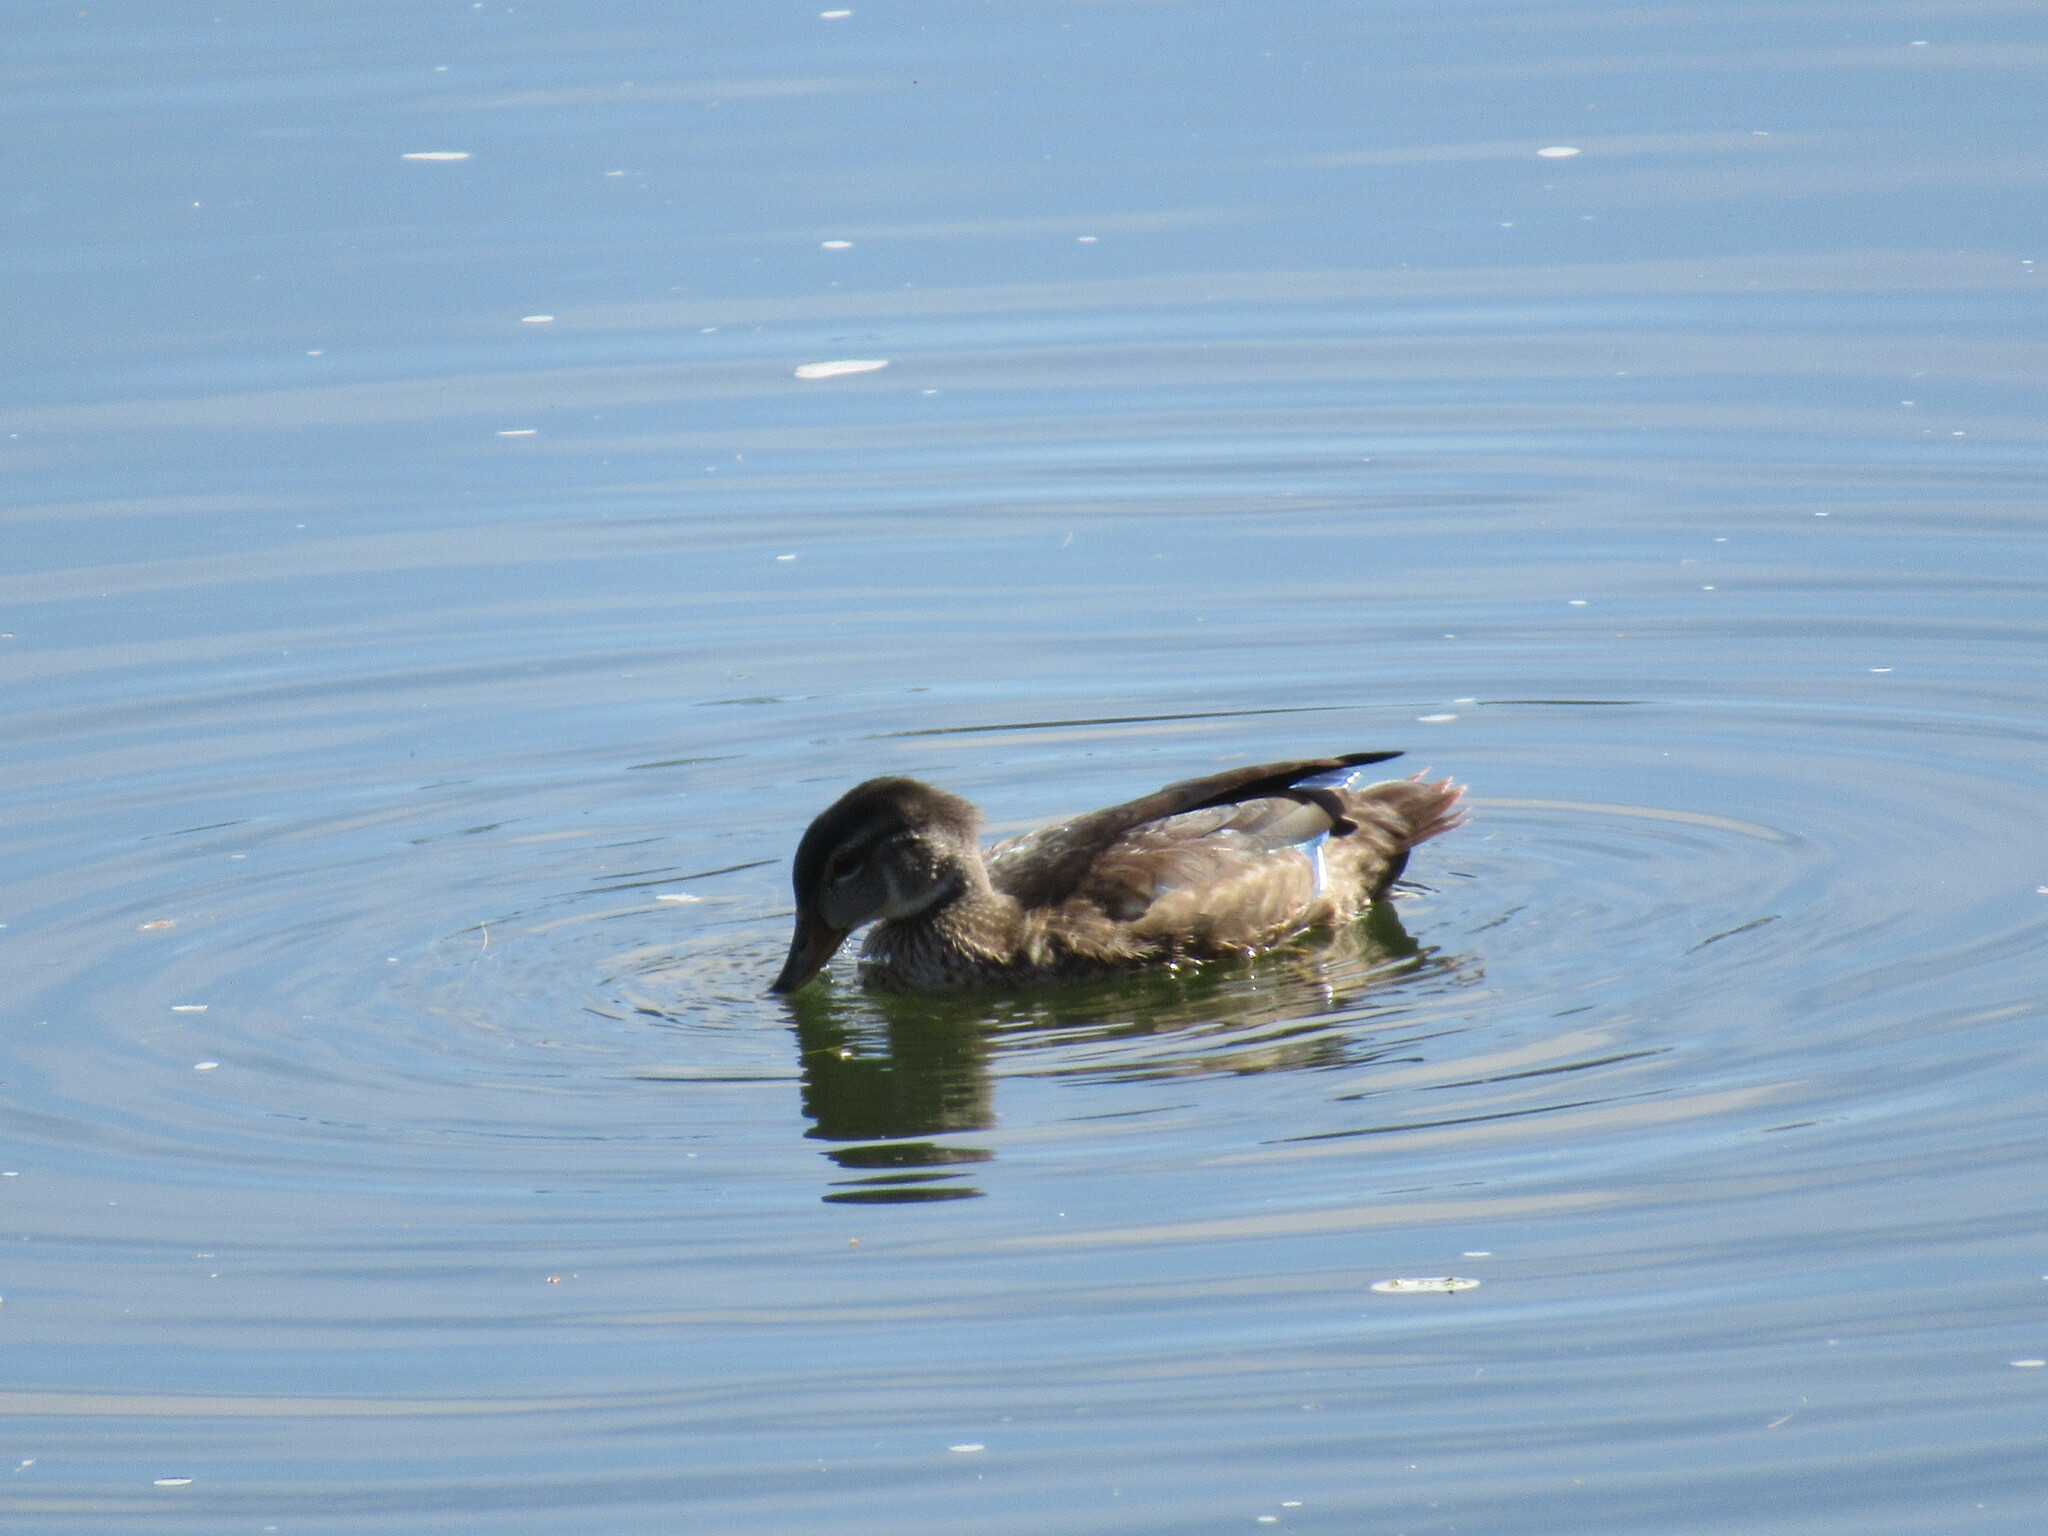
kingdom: Animalia
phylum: Chordata
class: Aves
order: Anseriformes
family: Anatidae
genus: Aix
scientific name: Aix sponsa
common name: Wood duck
